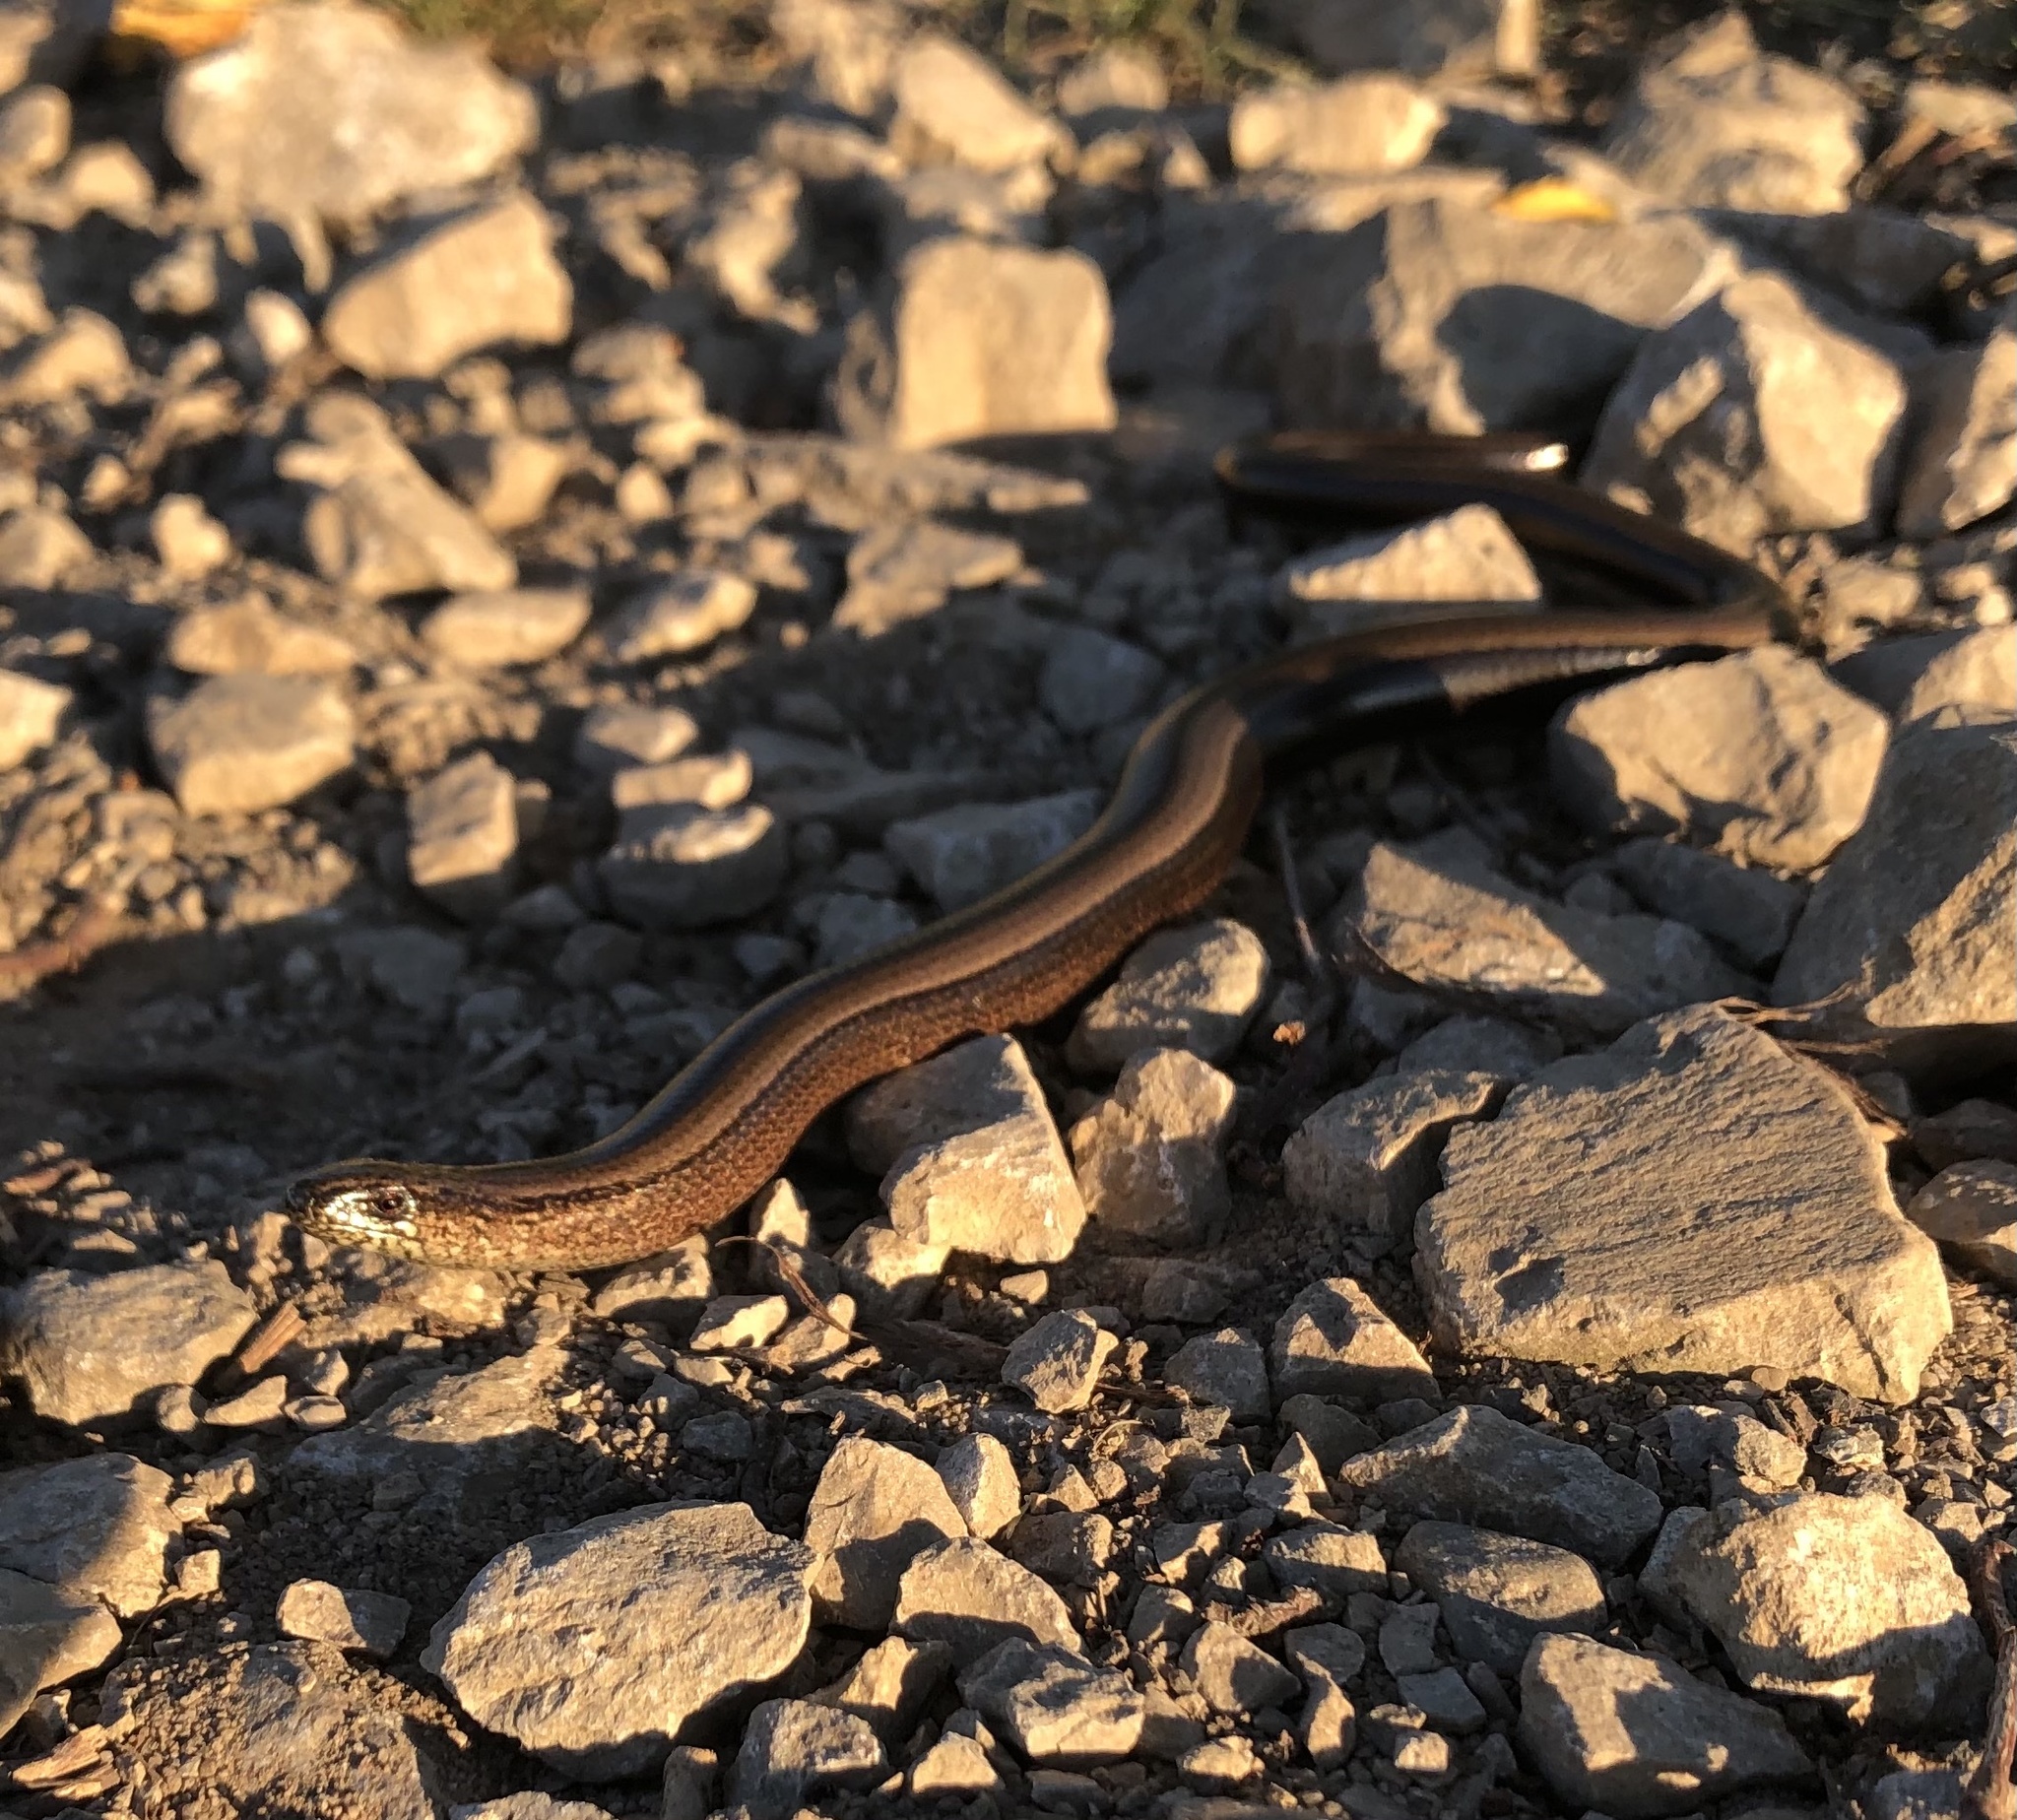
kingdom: Animalia
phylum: Chordata
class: Squamata
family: Anguidae
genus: Anguis
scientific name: Anguis fragilis
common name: Slow worm
